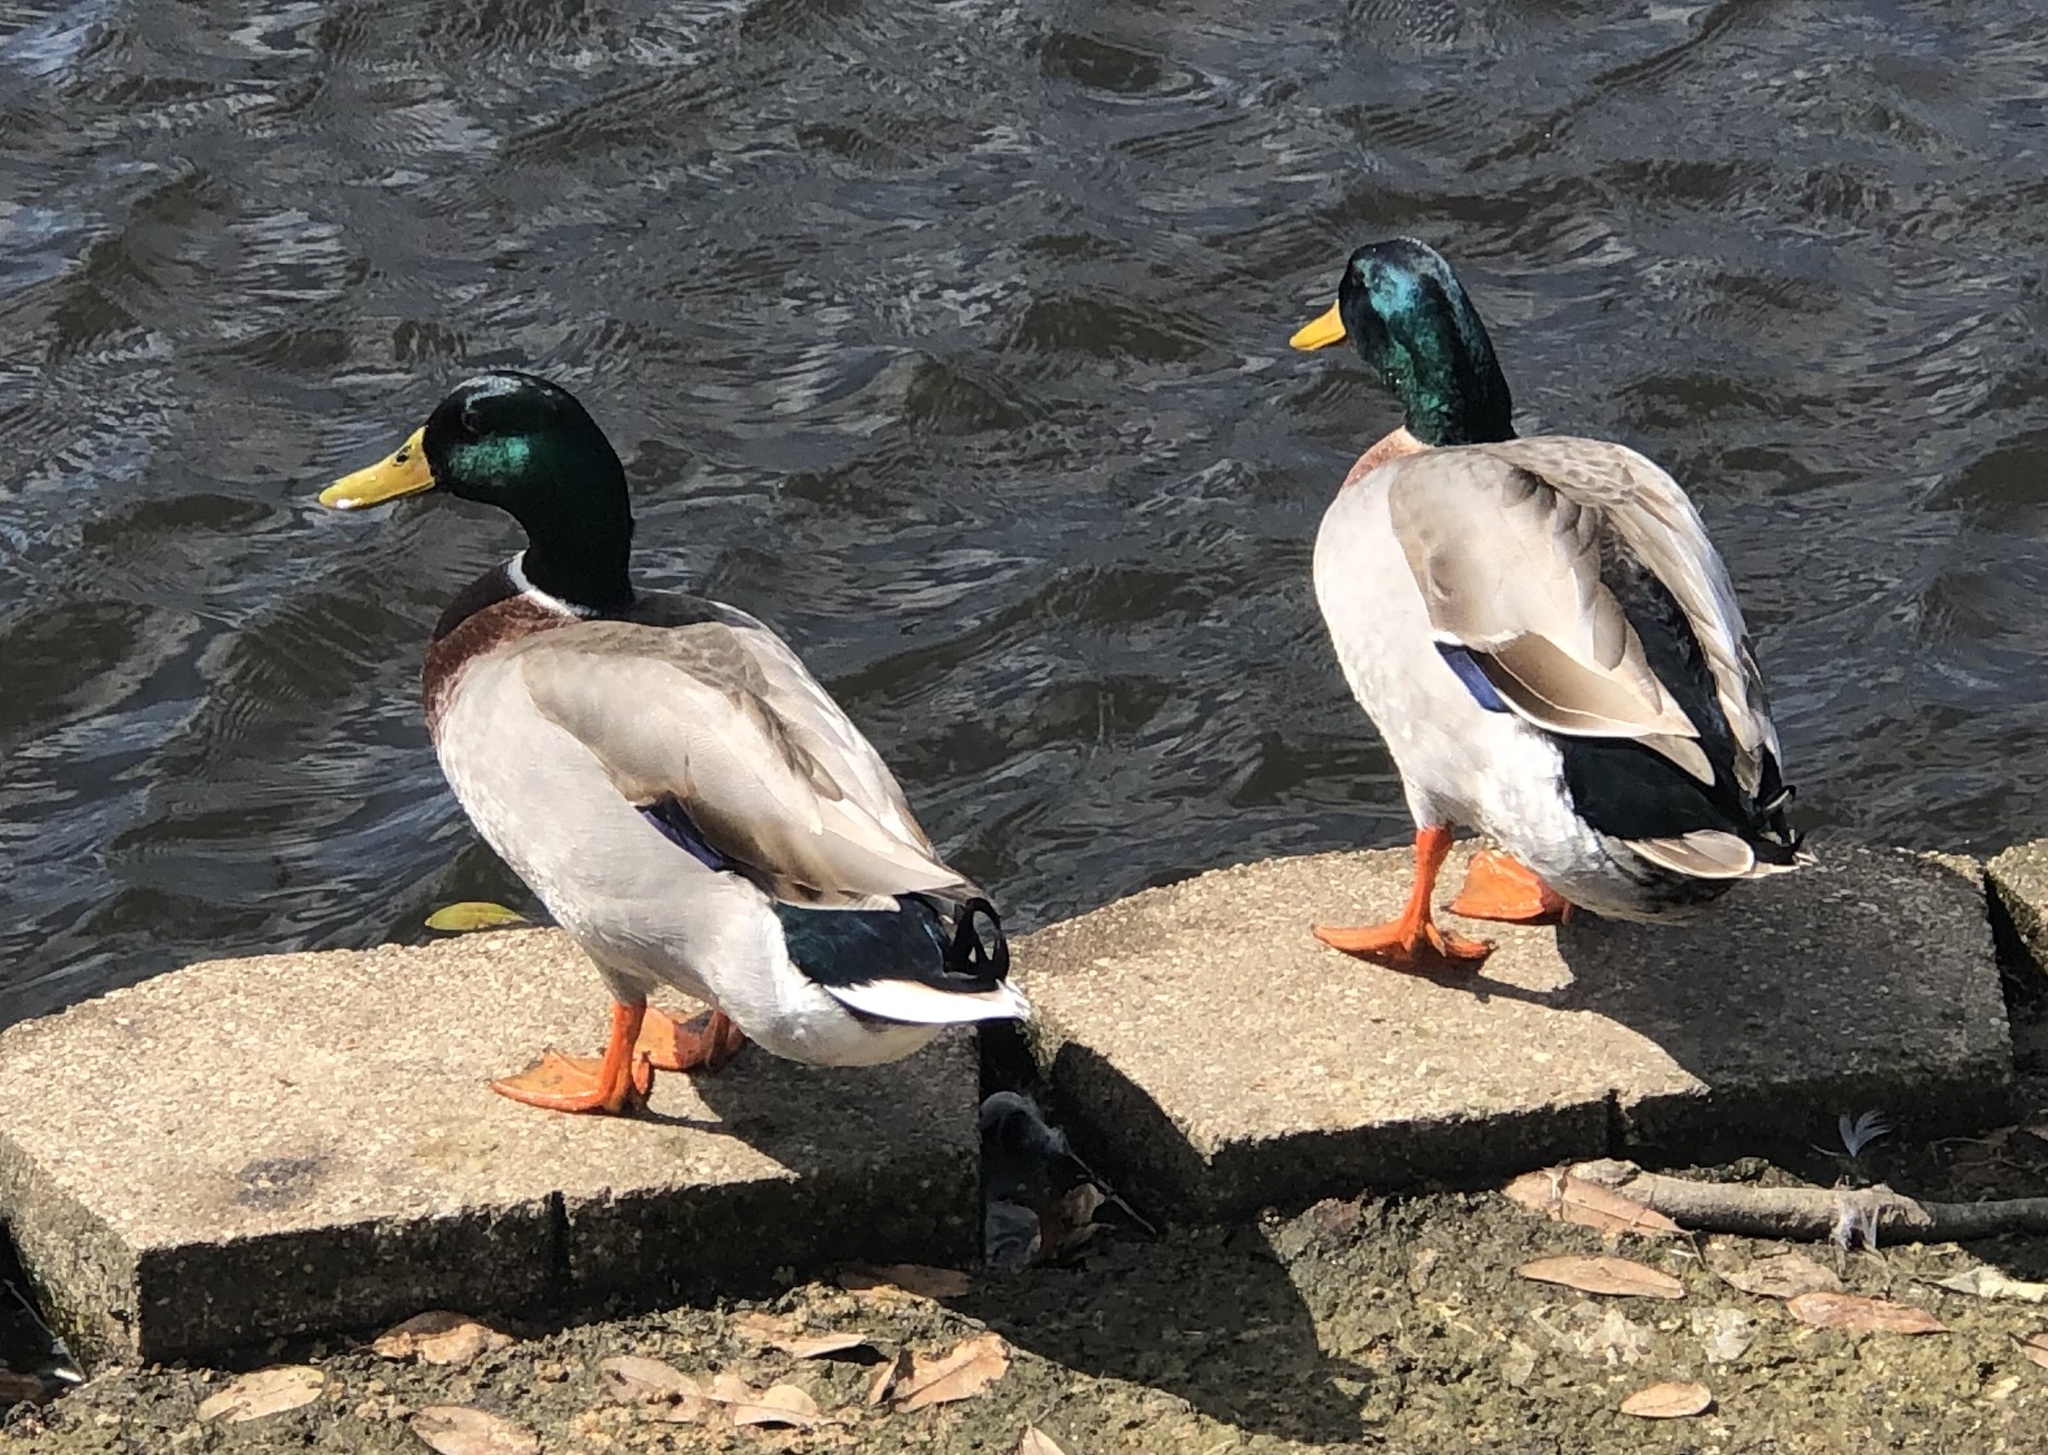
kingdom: Animalia
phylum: Chordata
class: Aves
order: Anseriformes
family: Anatidae
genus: Anas
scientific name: Anas platyrhynchos
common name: Mallard
